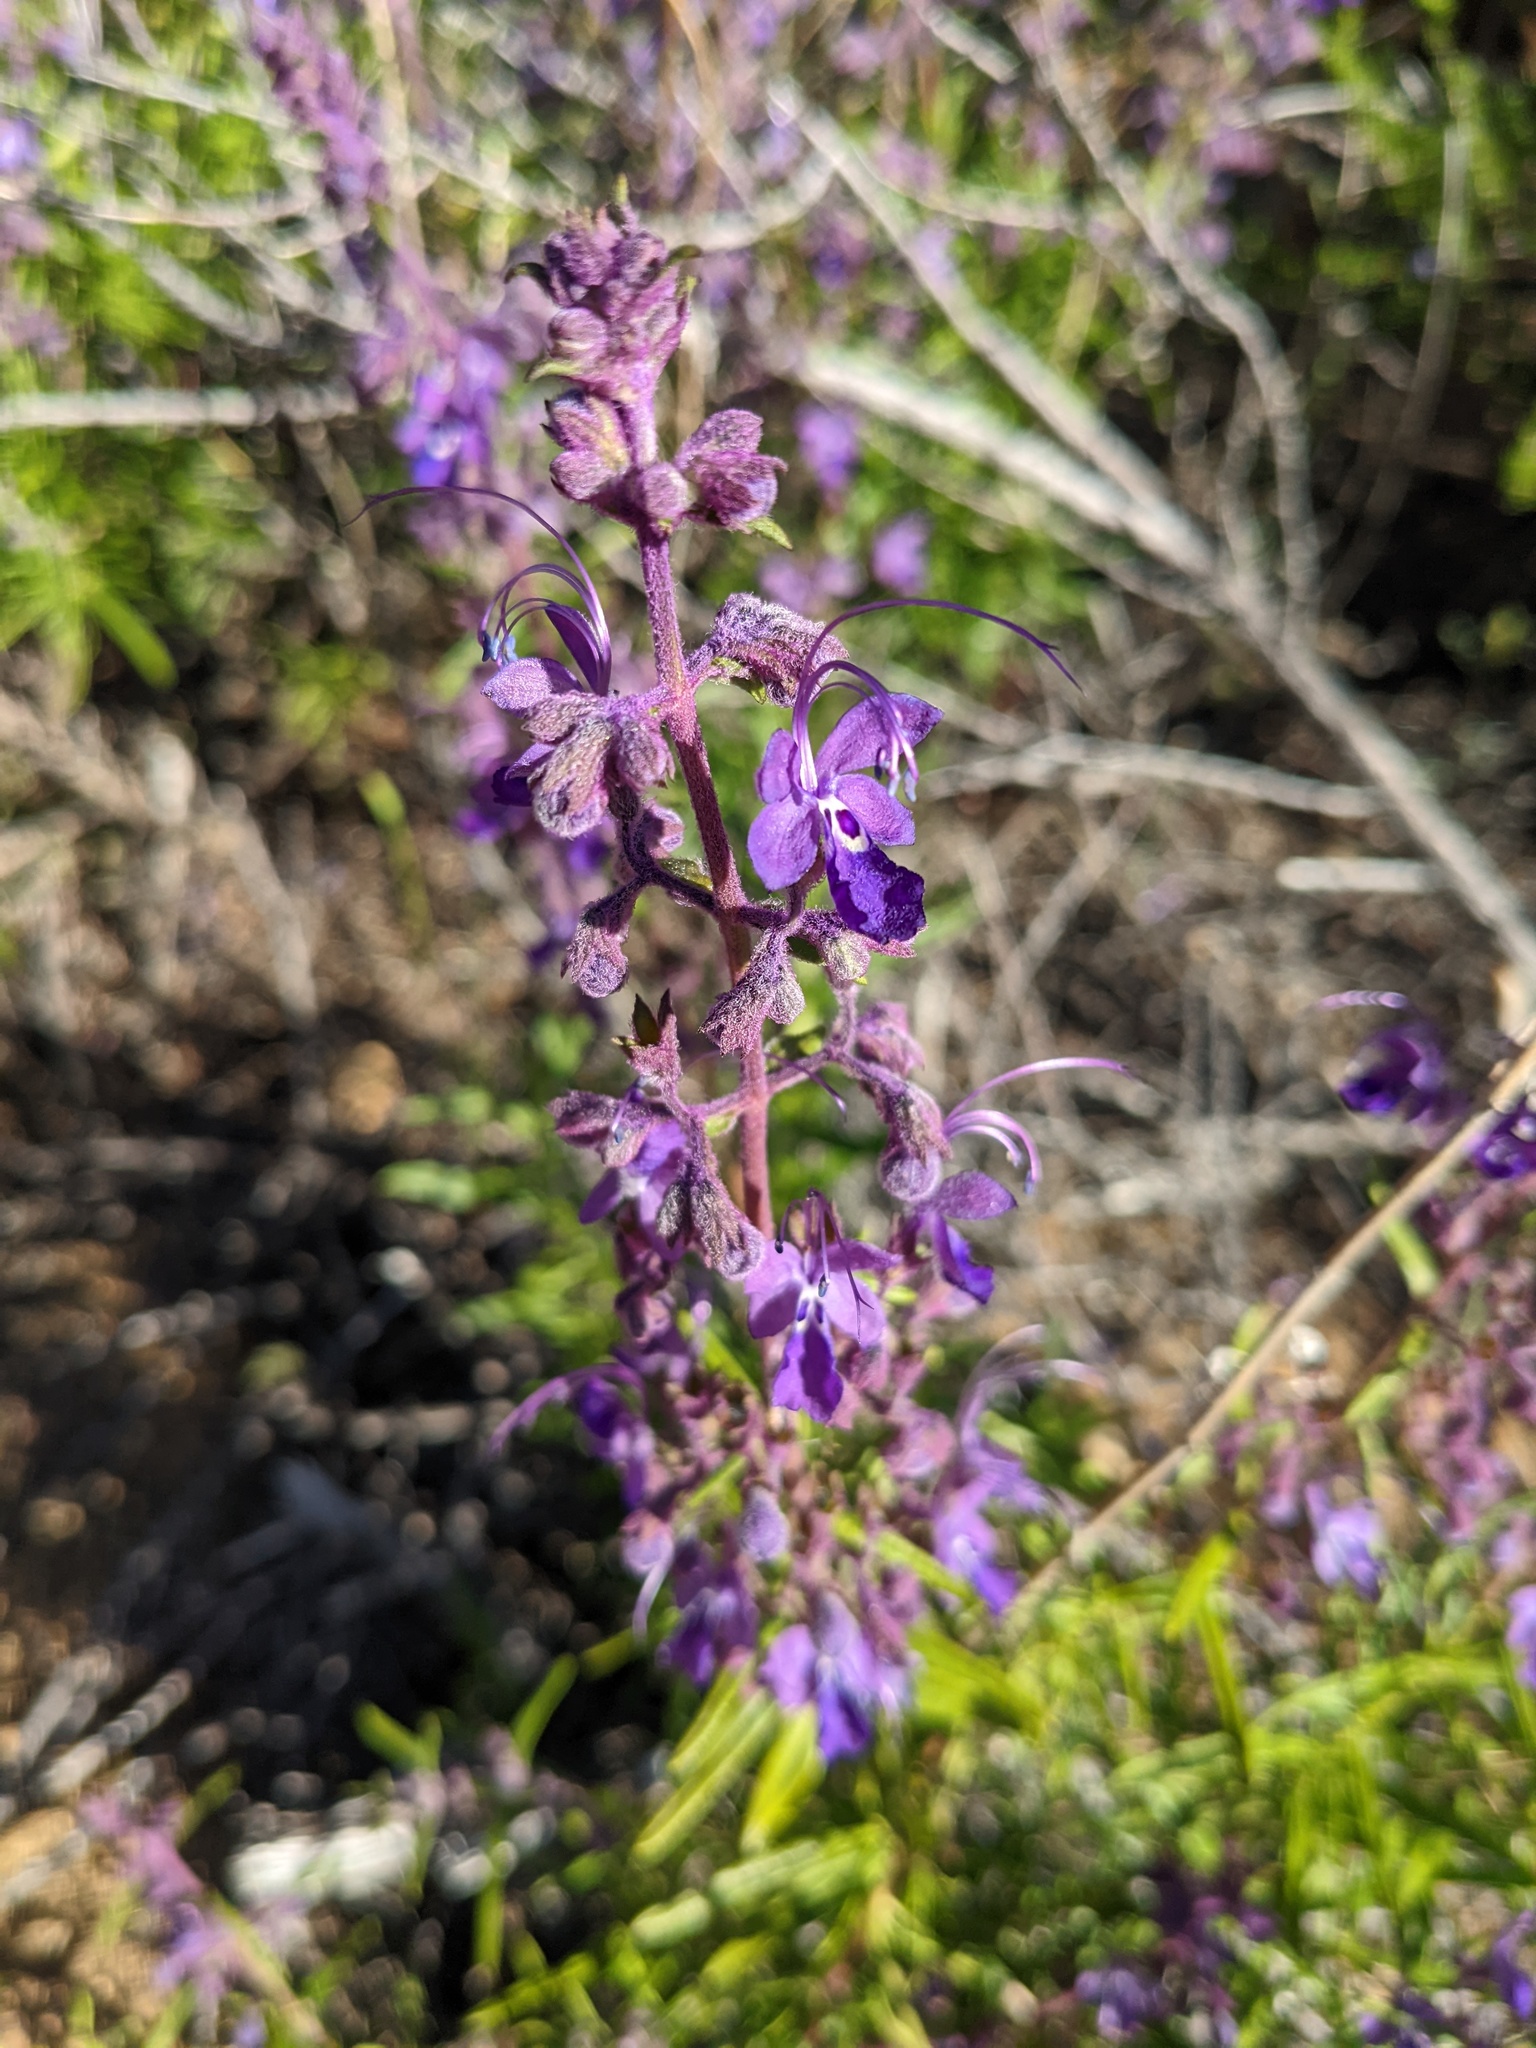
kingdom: Plantae
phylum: Tracheophyta
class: Magnoliopsida
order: Lamiales
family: Lamiaceae
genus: Trichostema
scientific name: Trichostema parishii
